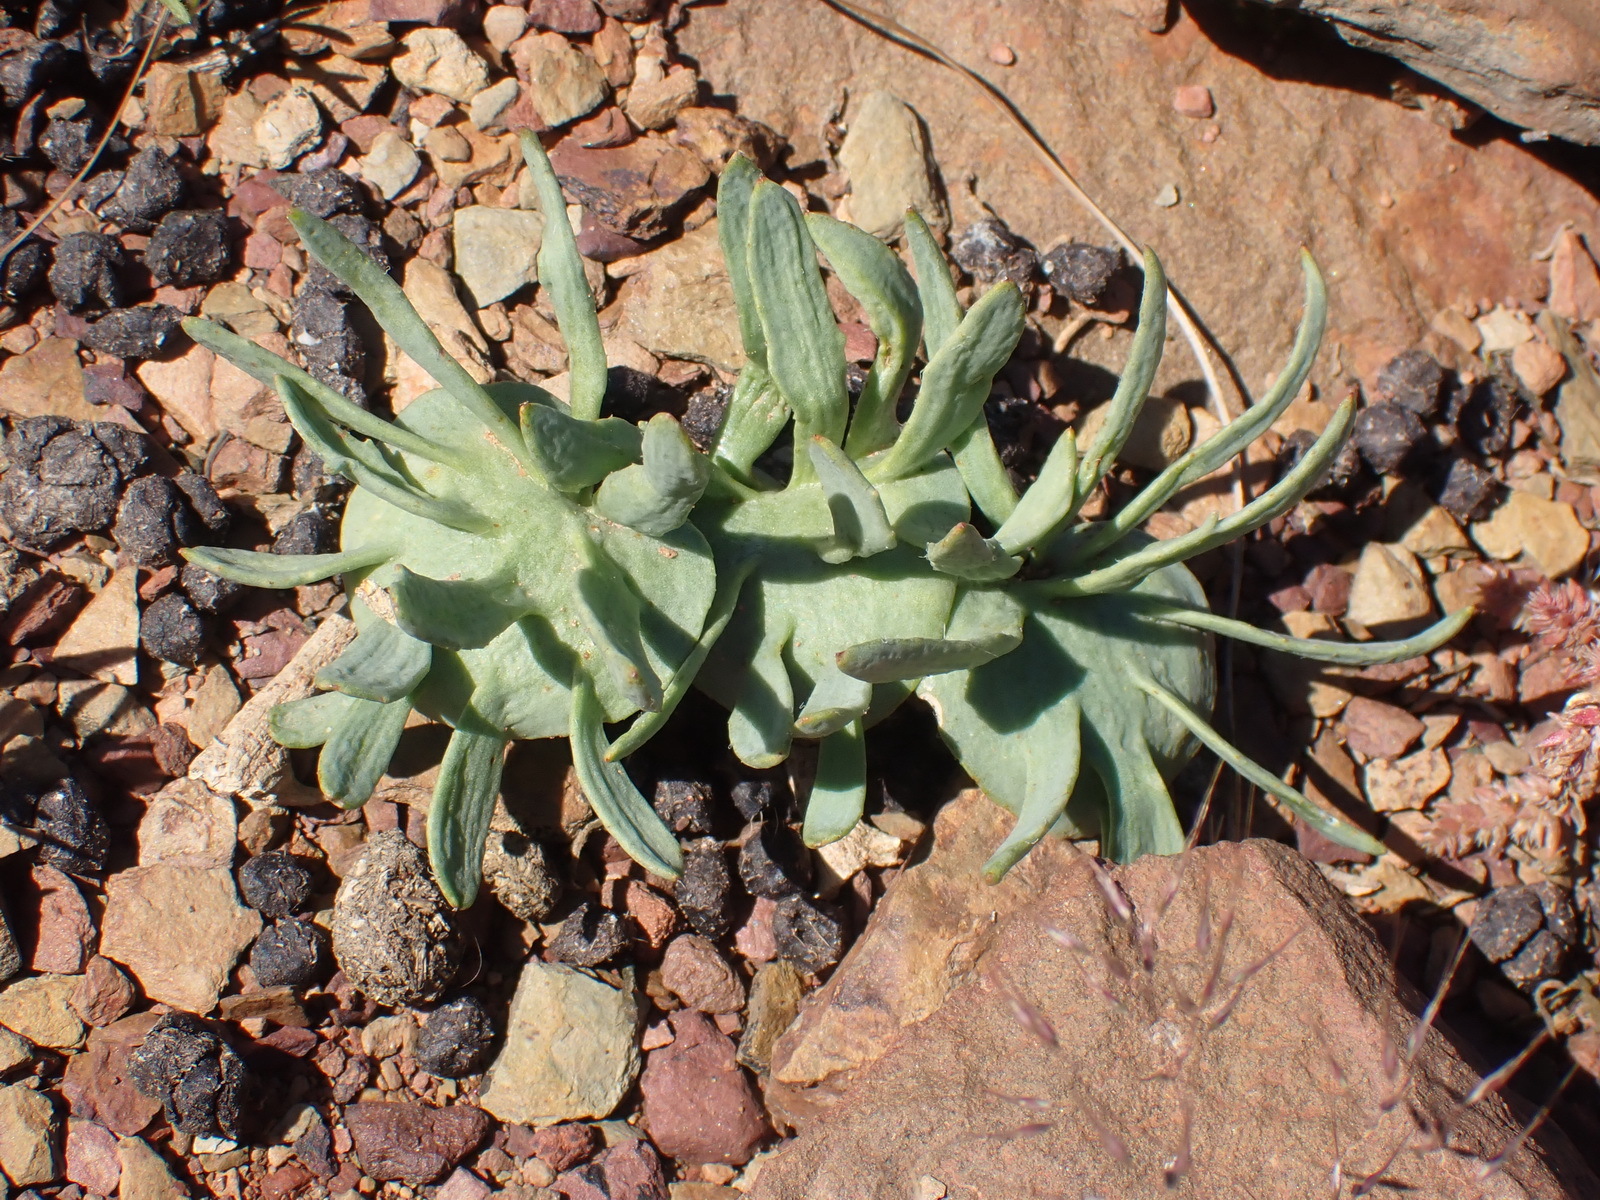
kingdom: Plantae
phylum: Tracheophyta
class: Liliopsida
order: Asparagales
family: Asparagaceae
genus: Eriospermum
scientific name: Eriospermum alcicorne
